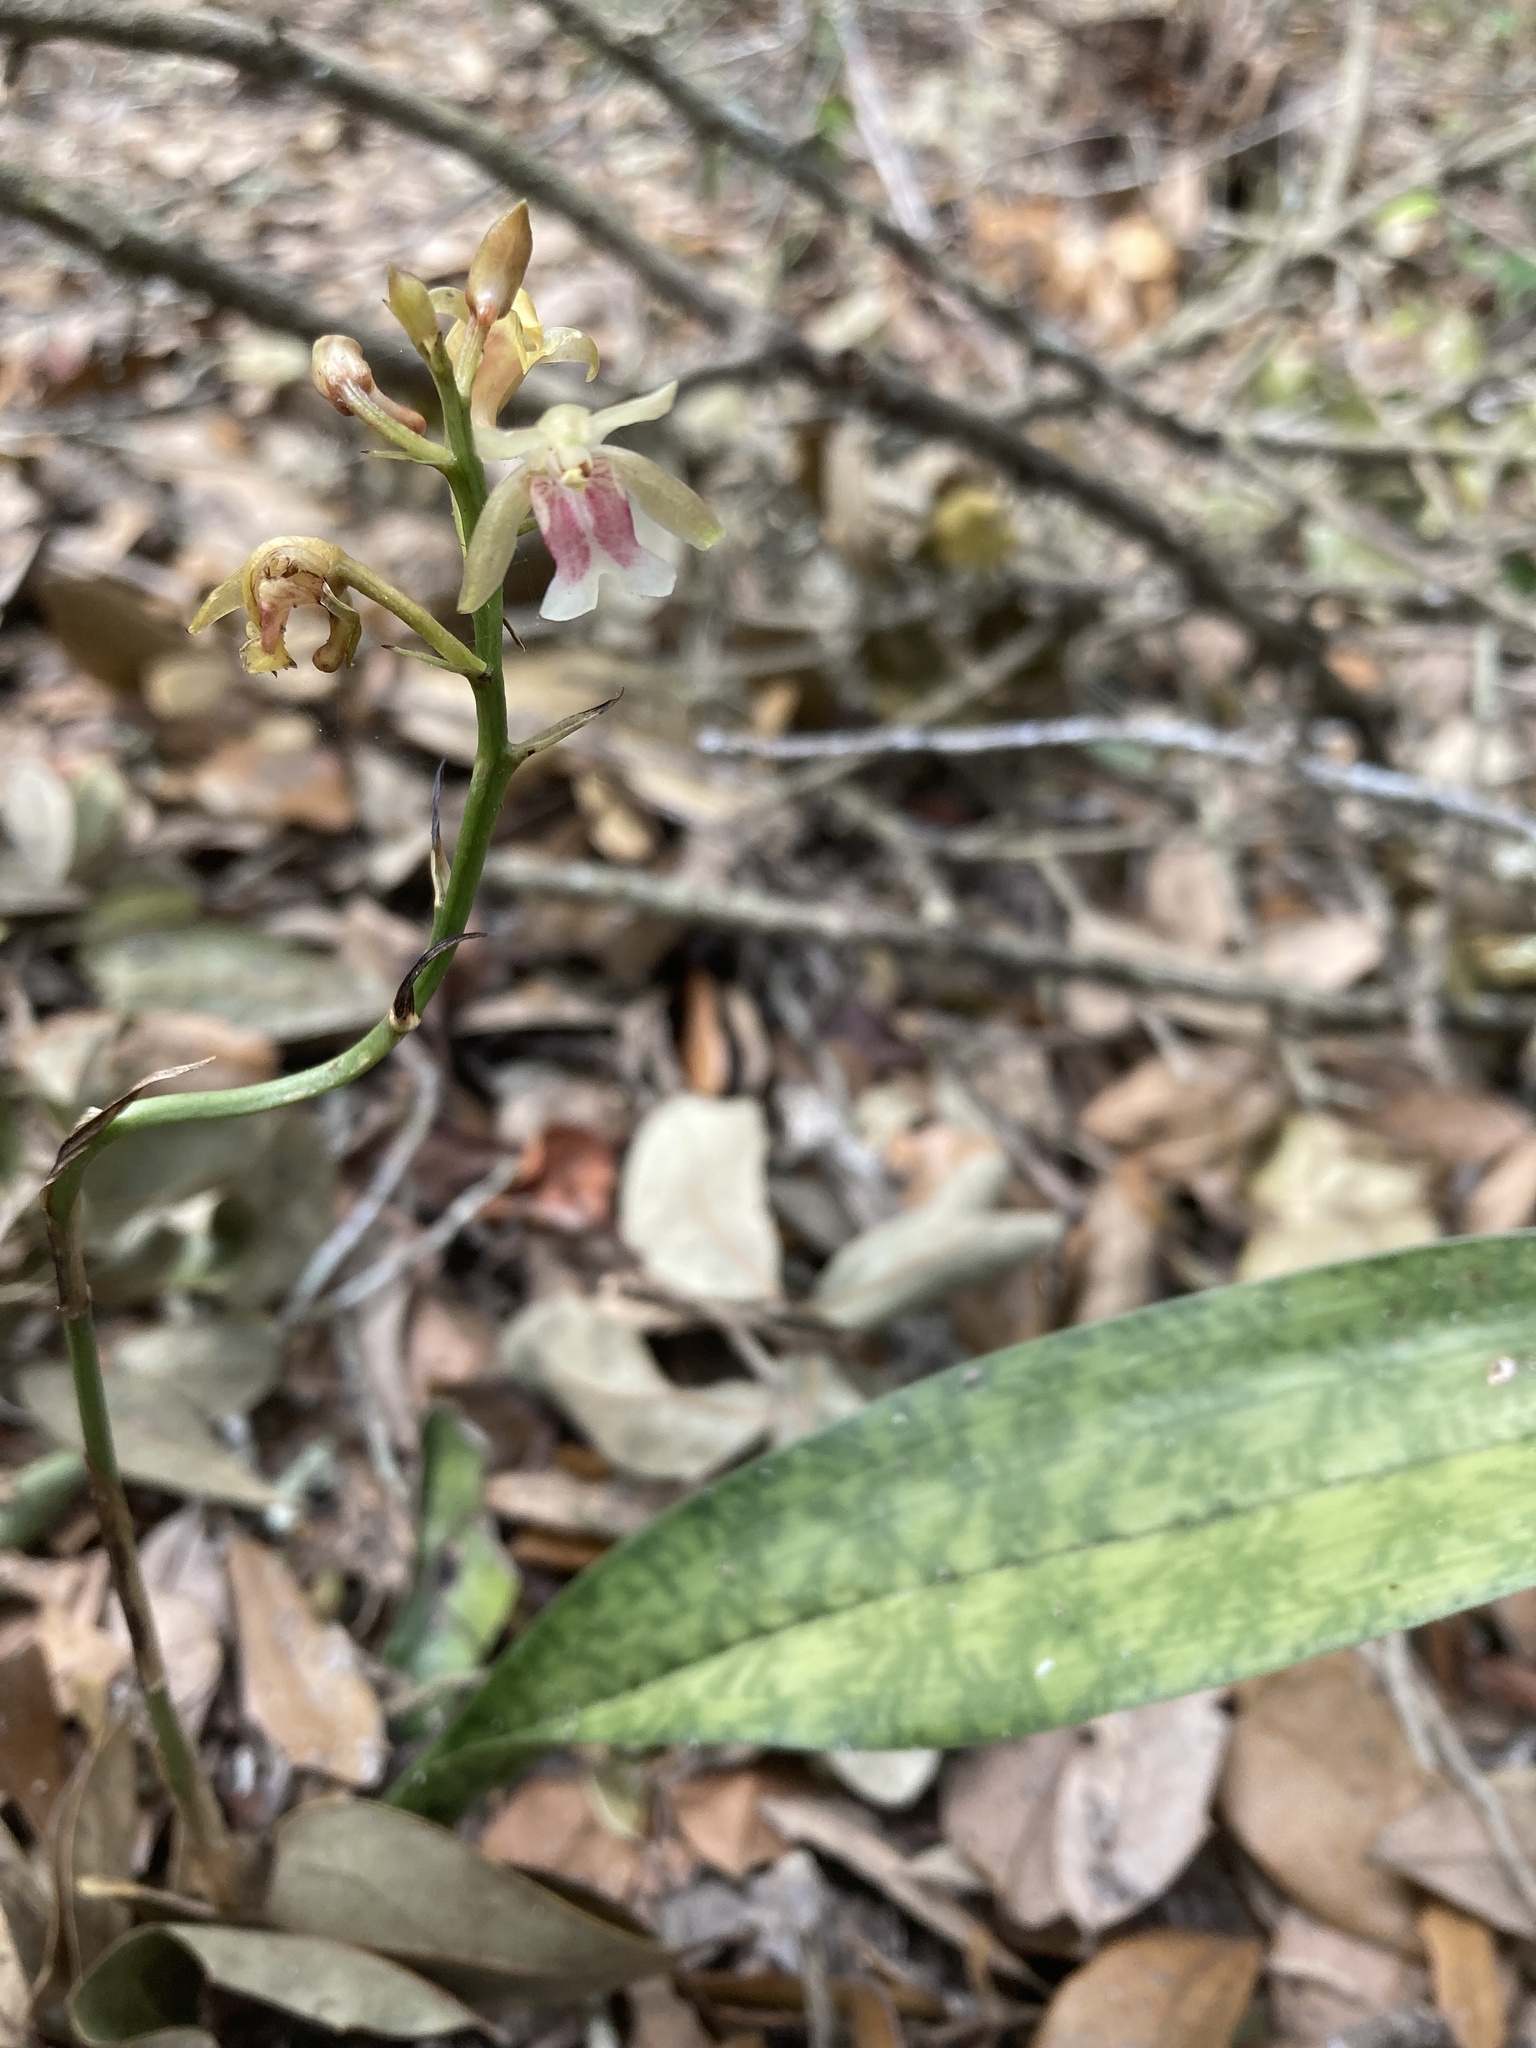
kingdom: Plantae
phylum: Tracheophyta
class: Liliopsida
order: Asparagales
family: Orchidaceae
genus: Eulophia
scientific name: Eulophia maculata
